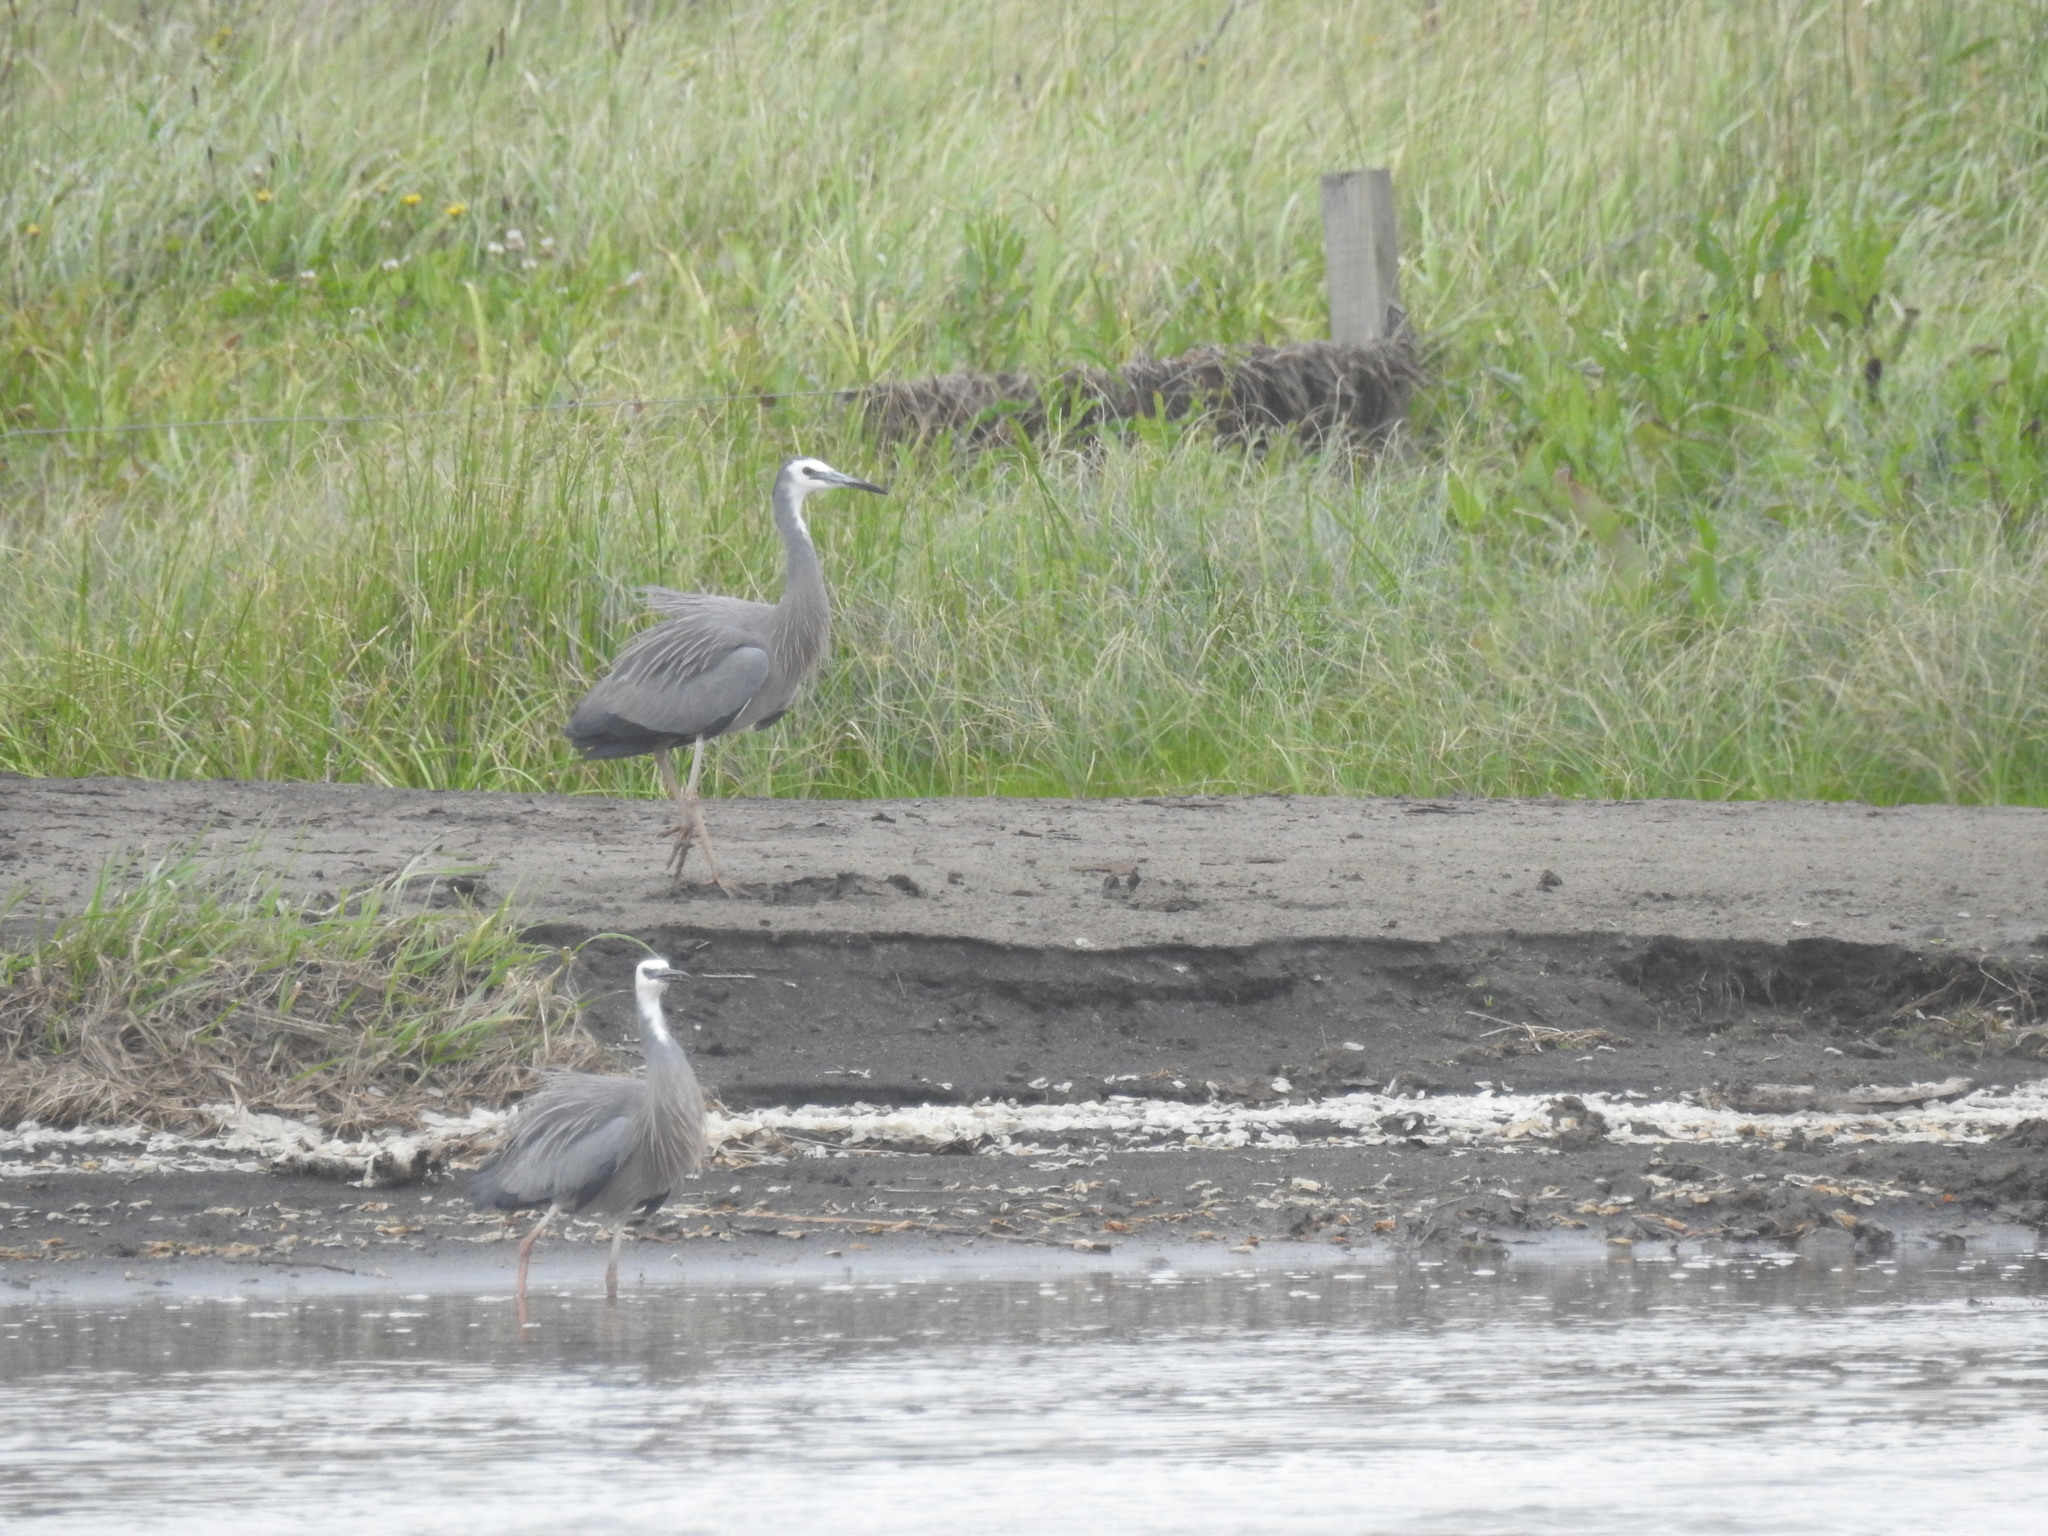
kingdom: Animalia
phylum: Chordata
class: Aves
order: Pelecaniformes
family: Ardeidae
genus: Egretta
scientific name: Egretta novaehollandiae
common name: White-faced heron
